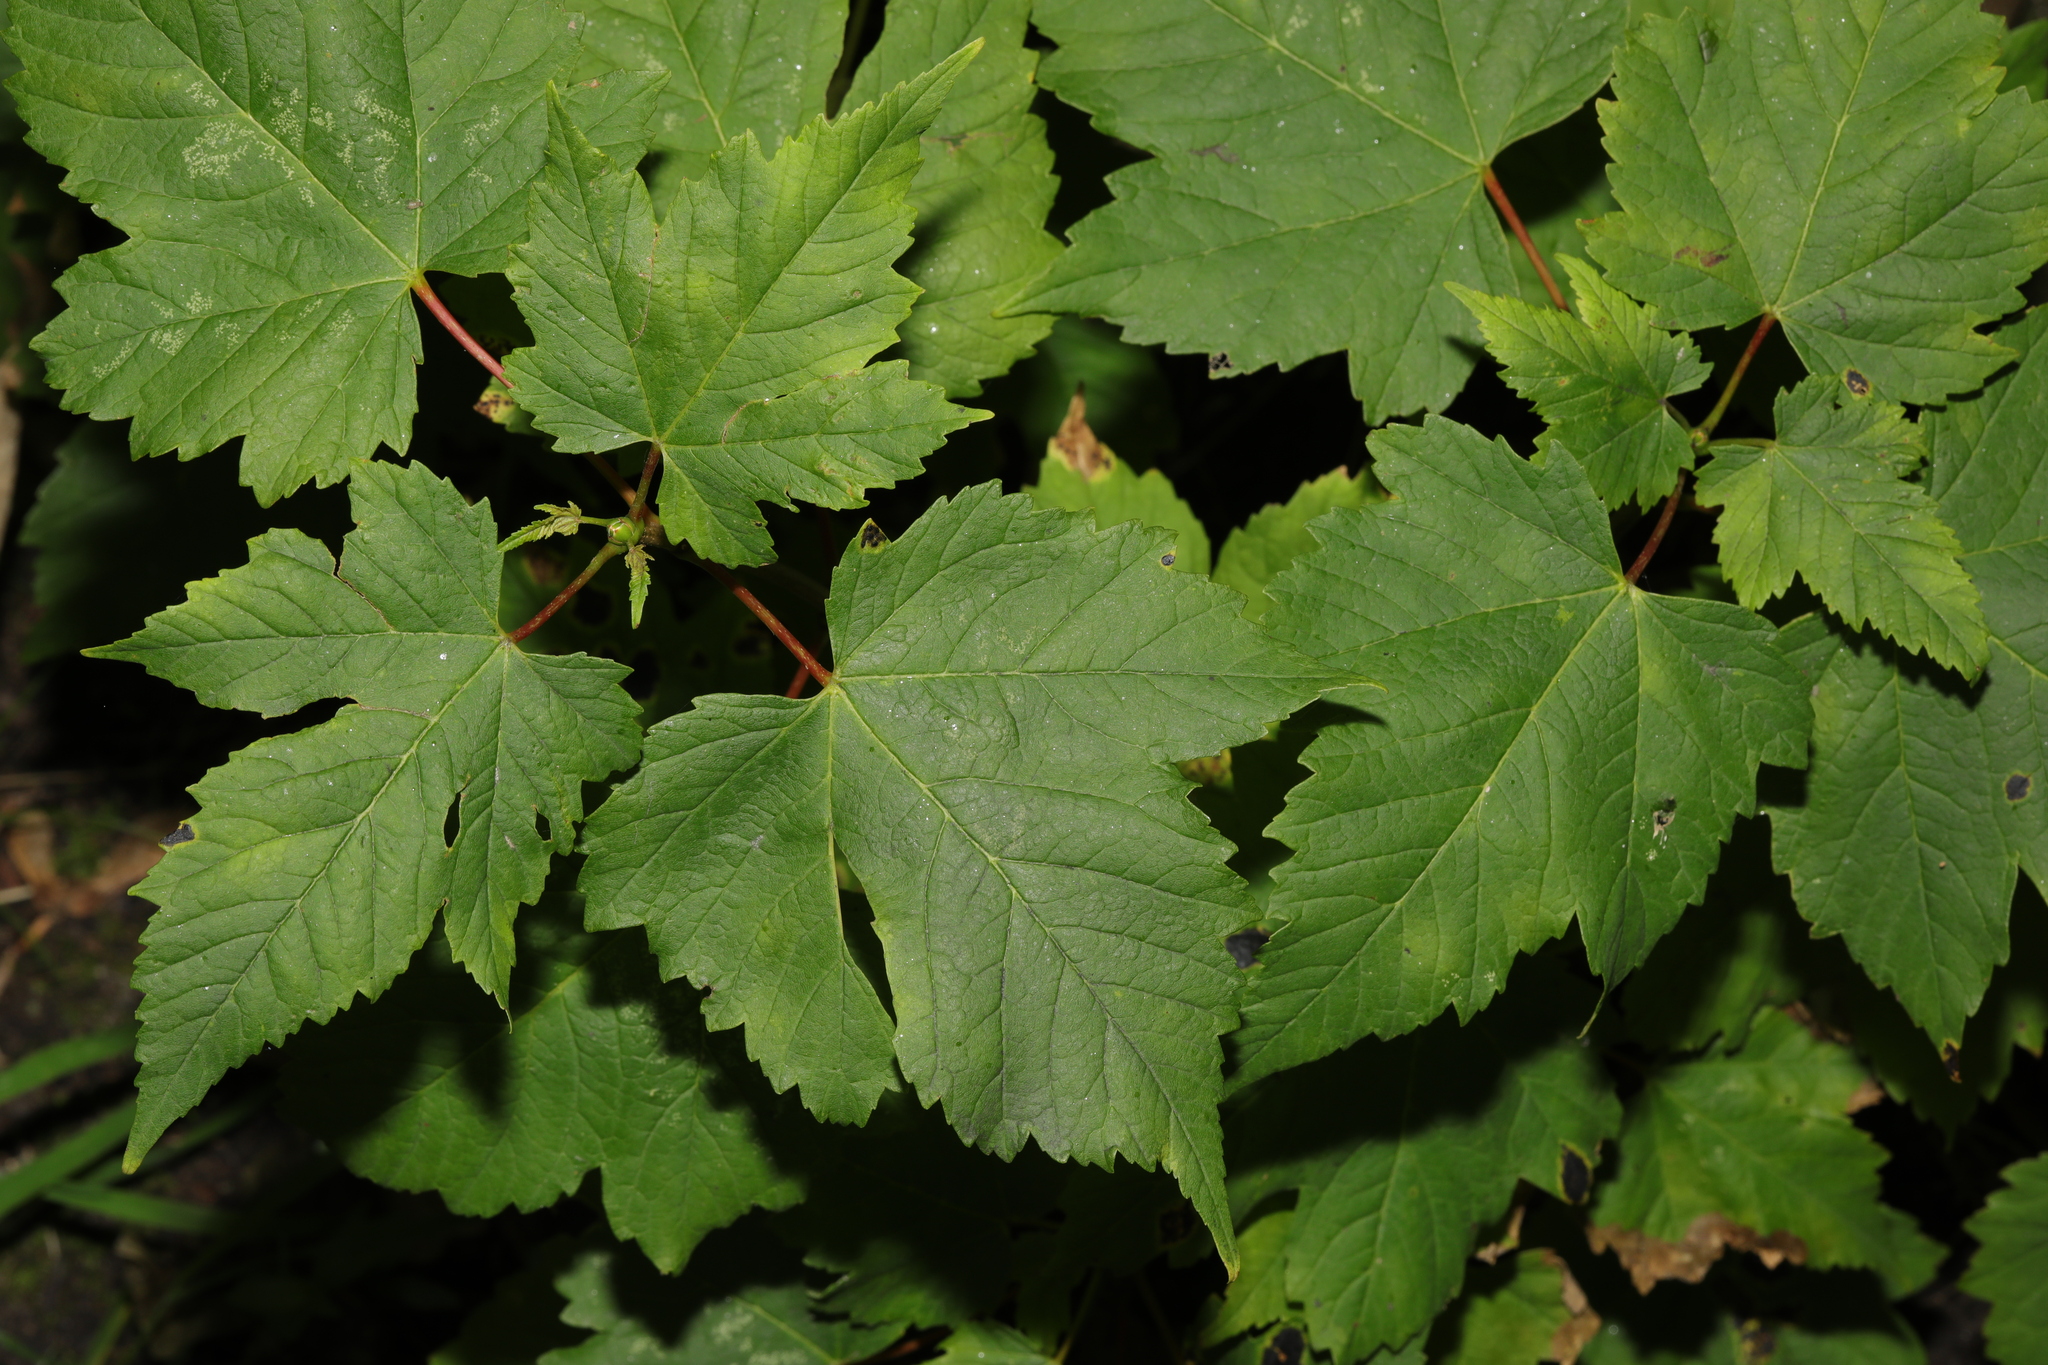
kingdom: Plantae
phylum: Tracheophyta
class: Magnoliopsida
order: Sapindales
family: Sapindaceae
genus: Acer
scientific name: Acer pseudoplatanus
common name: Sycamore
